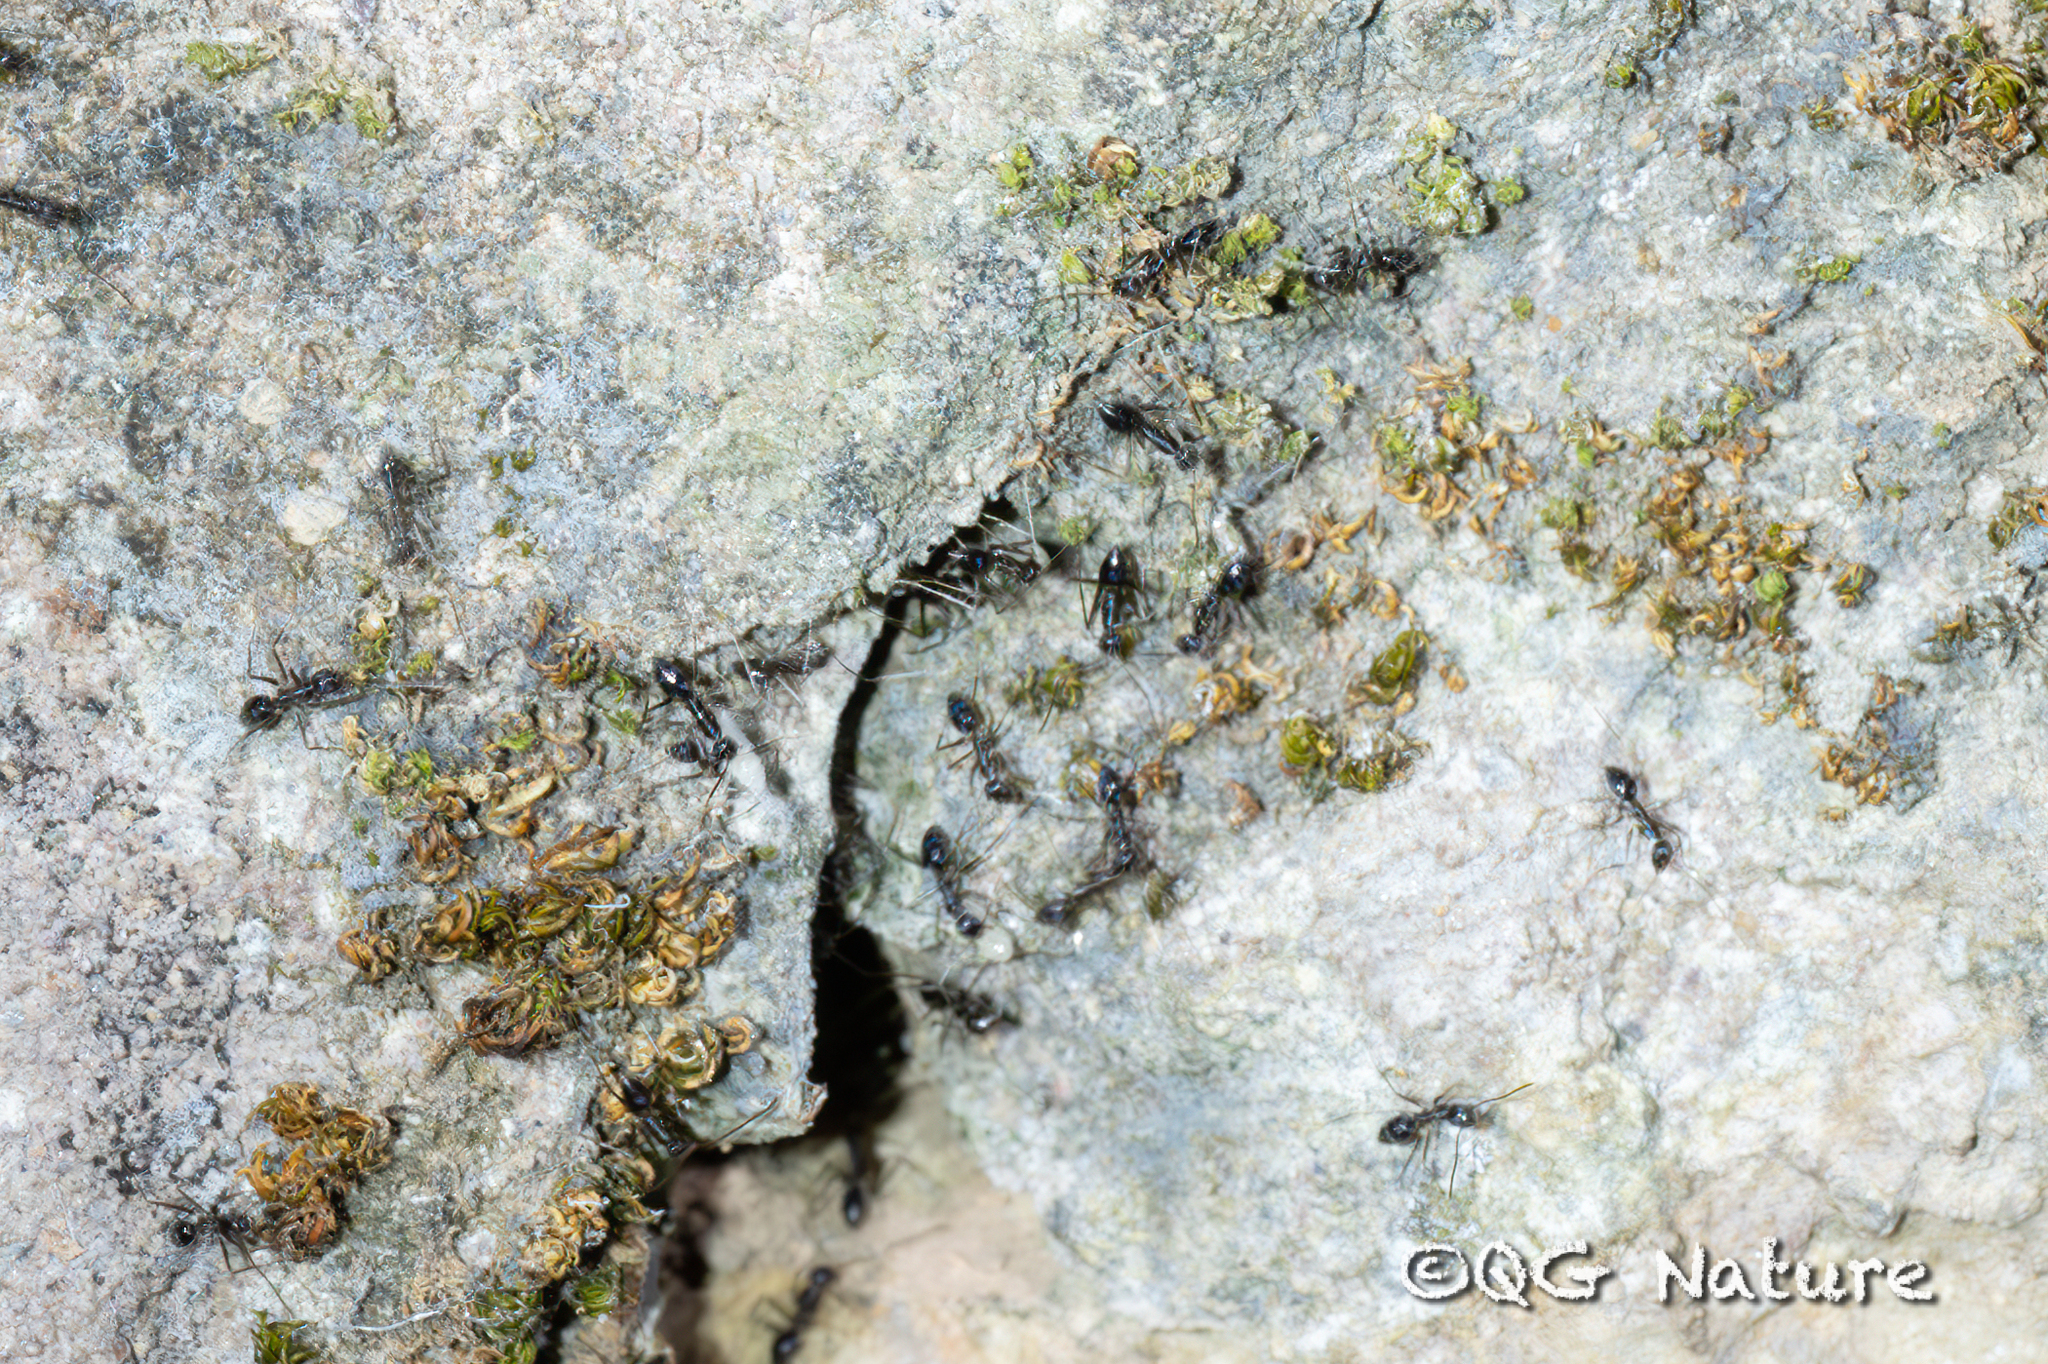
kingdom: Animalia
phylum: Arthropoda
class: Insecta
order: Hymenoptera
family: Formicidae
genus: Paratrechina
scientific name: Paratrechina longicornis
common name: Longhorned crazy ant
